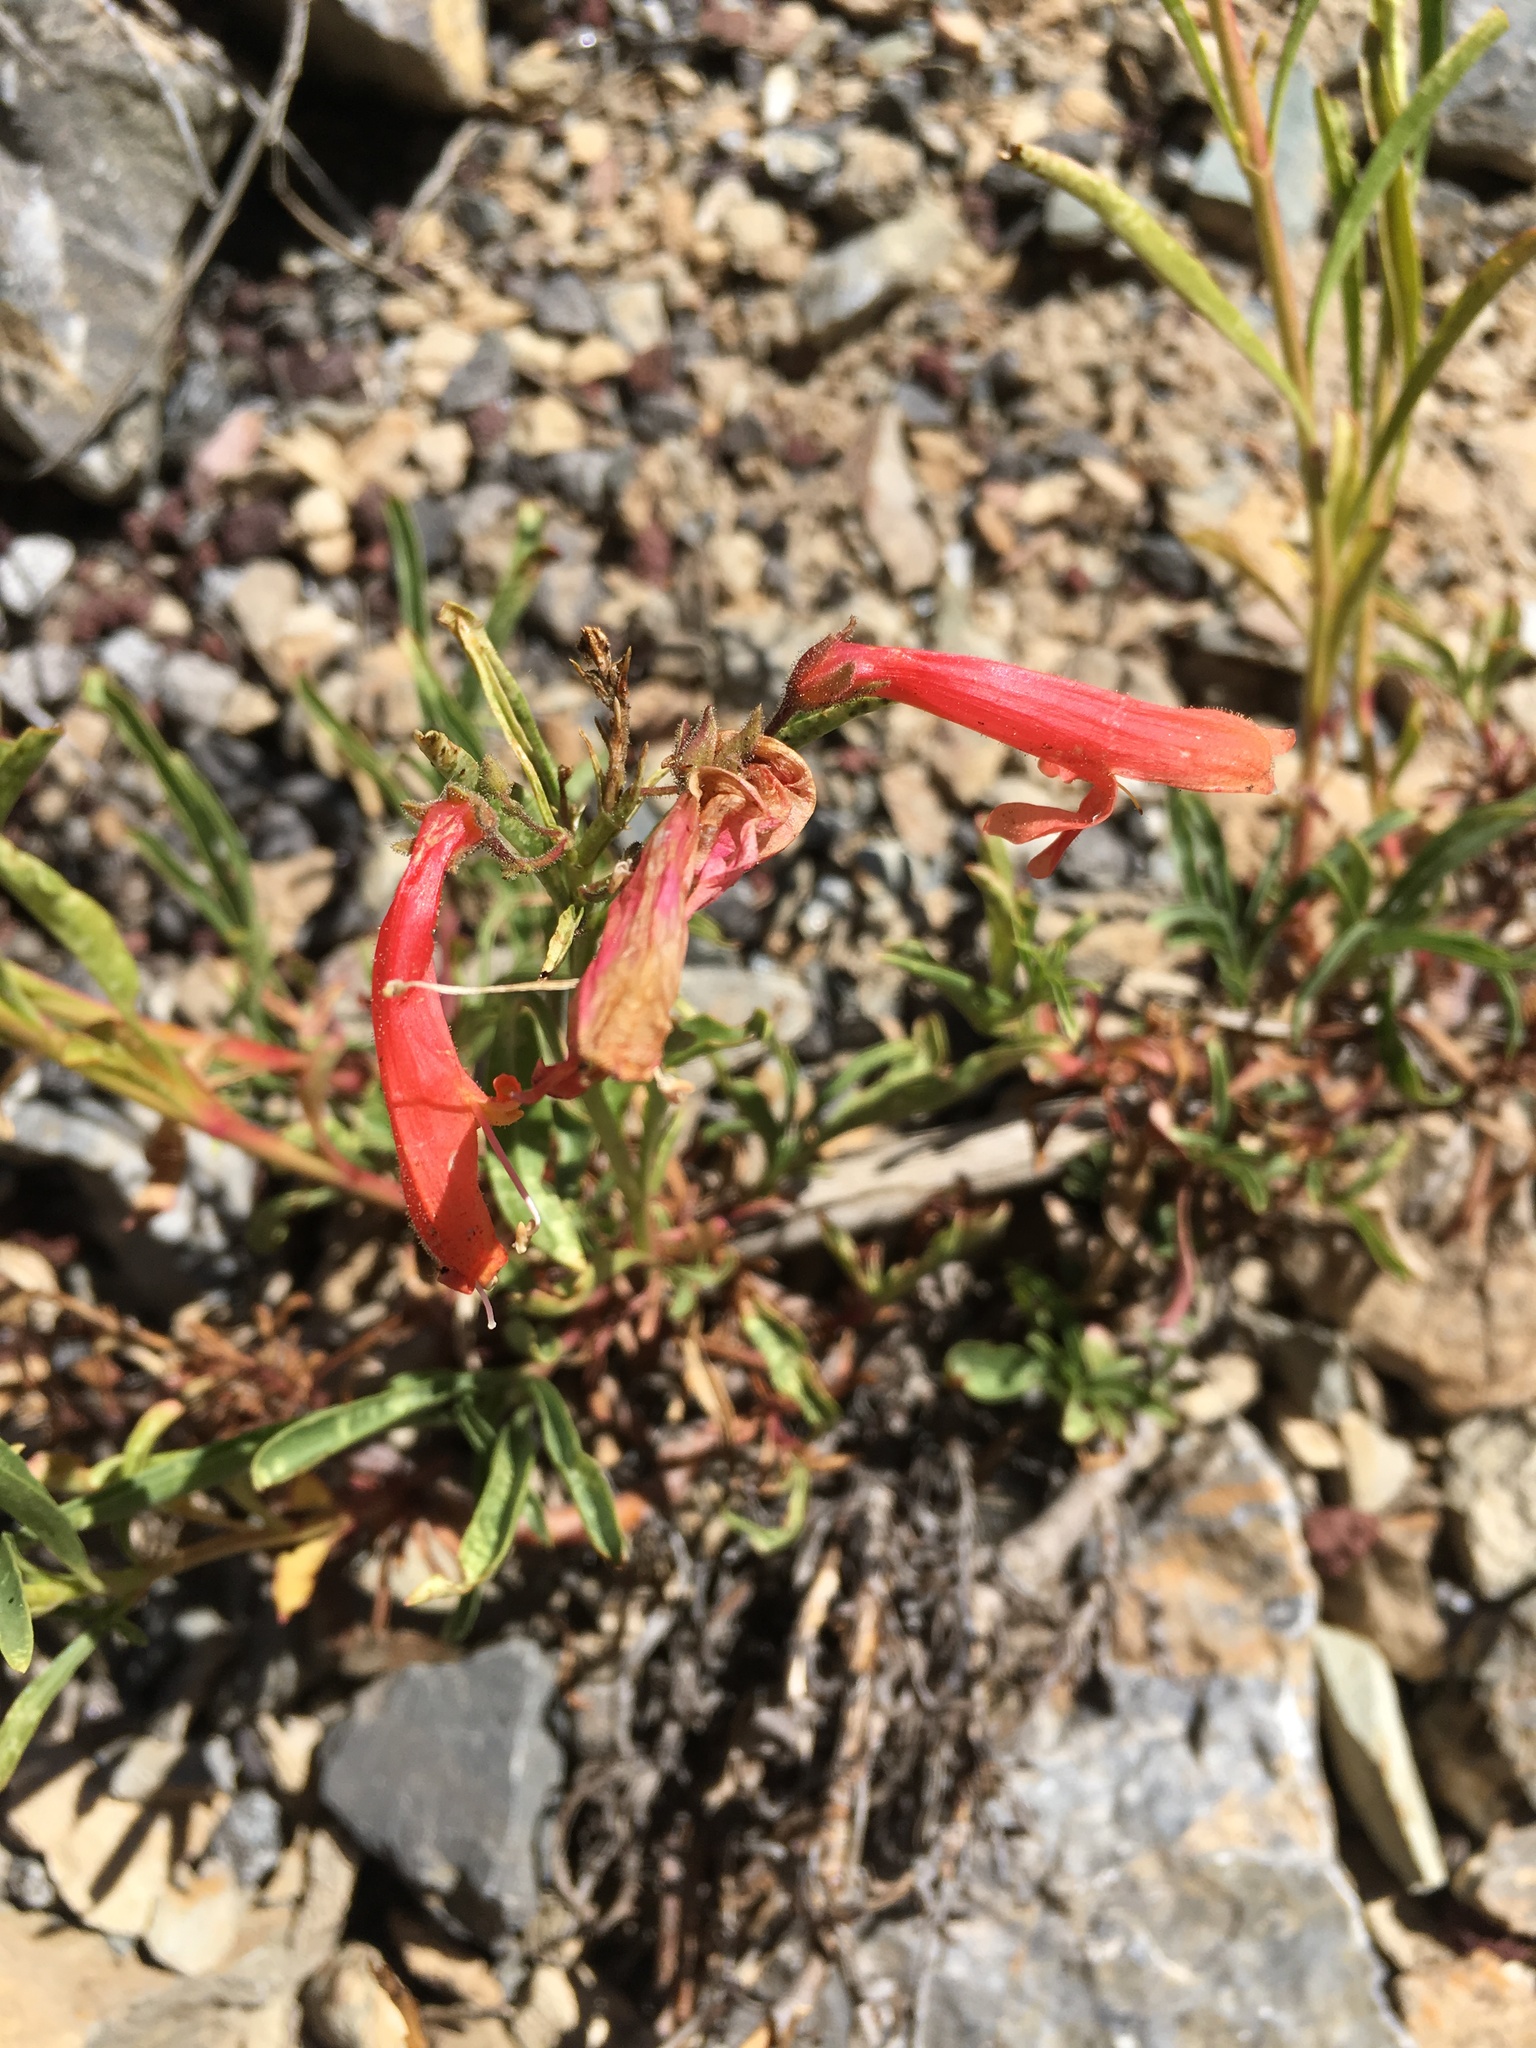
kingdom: Plantae
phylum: Tracheophyta
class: Magnoliopsida
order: Lamiales
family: Plantaginaceae
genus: Penstemon
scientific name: Penstemon rostriflorus
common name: Bridges's penstemon
